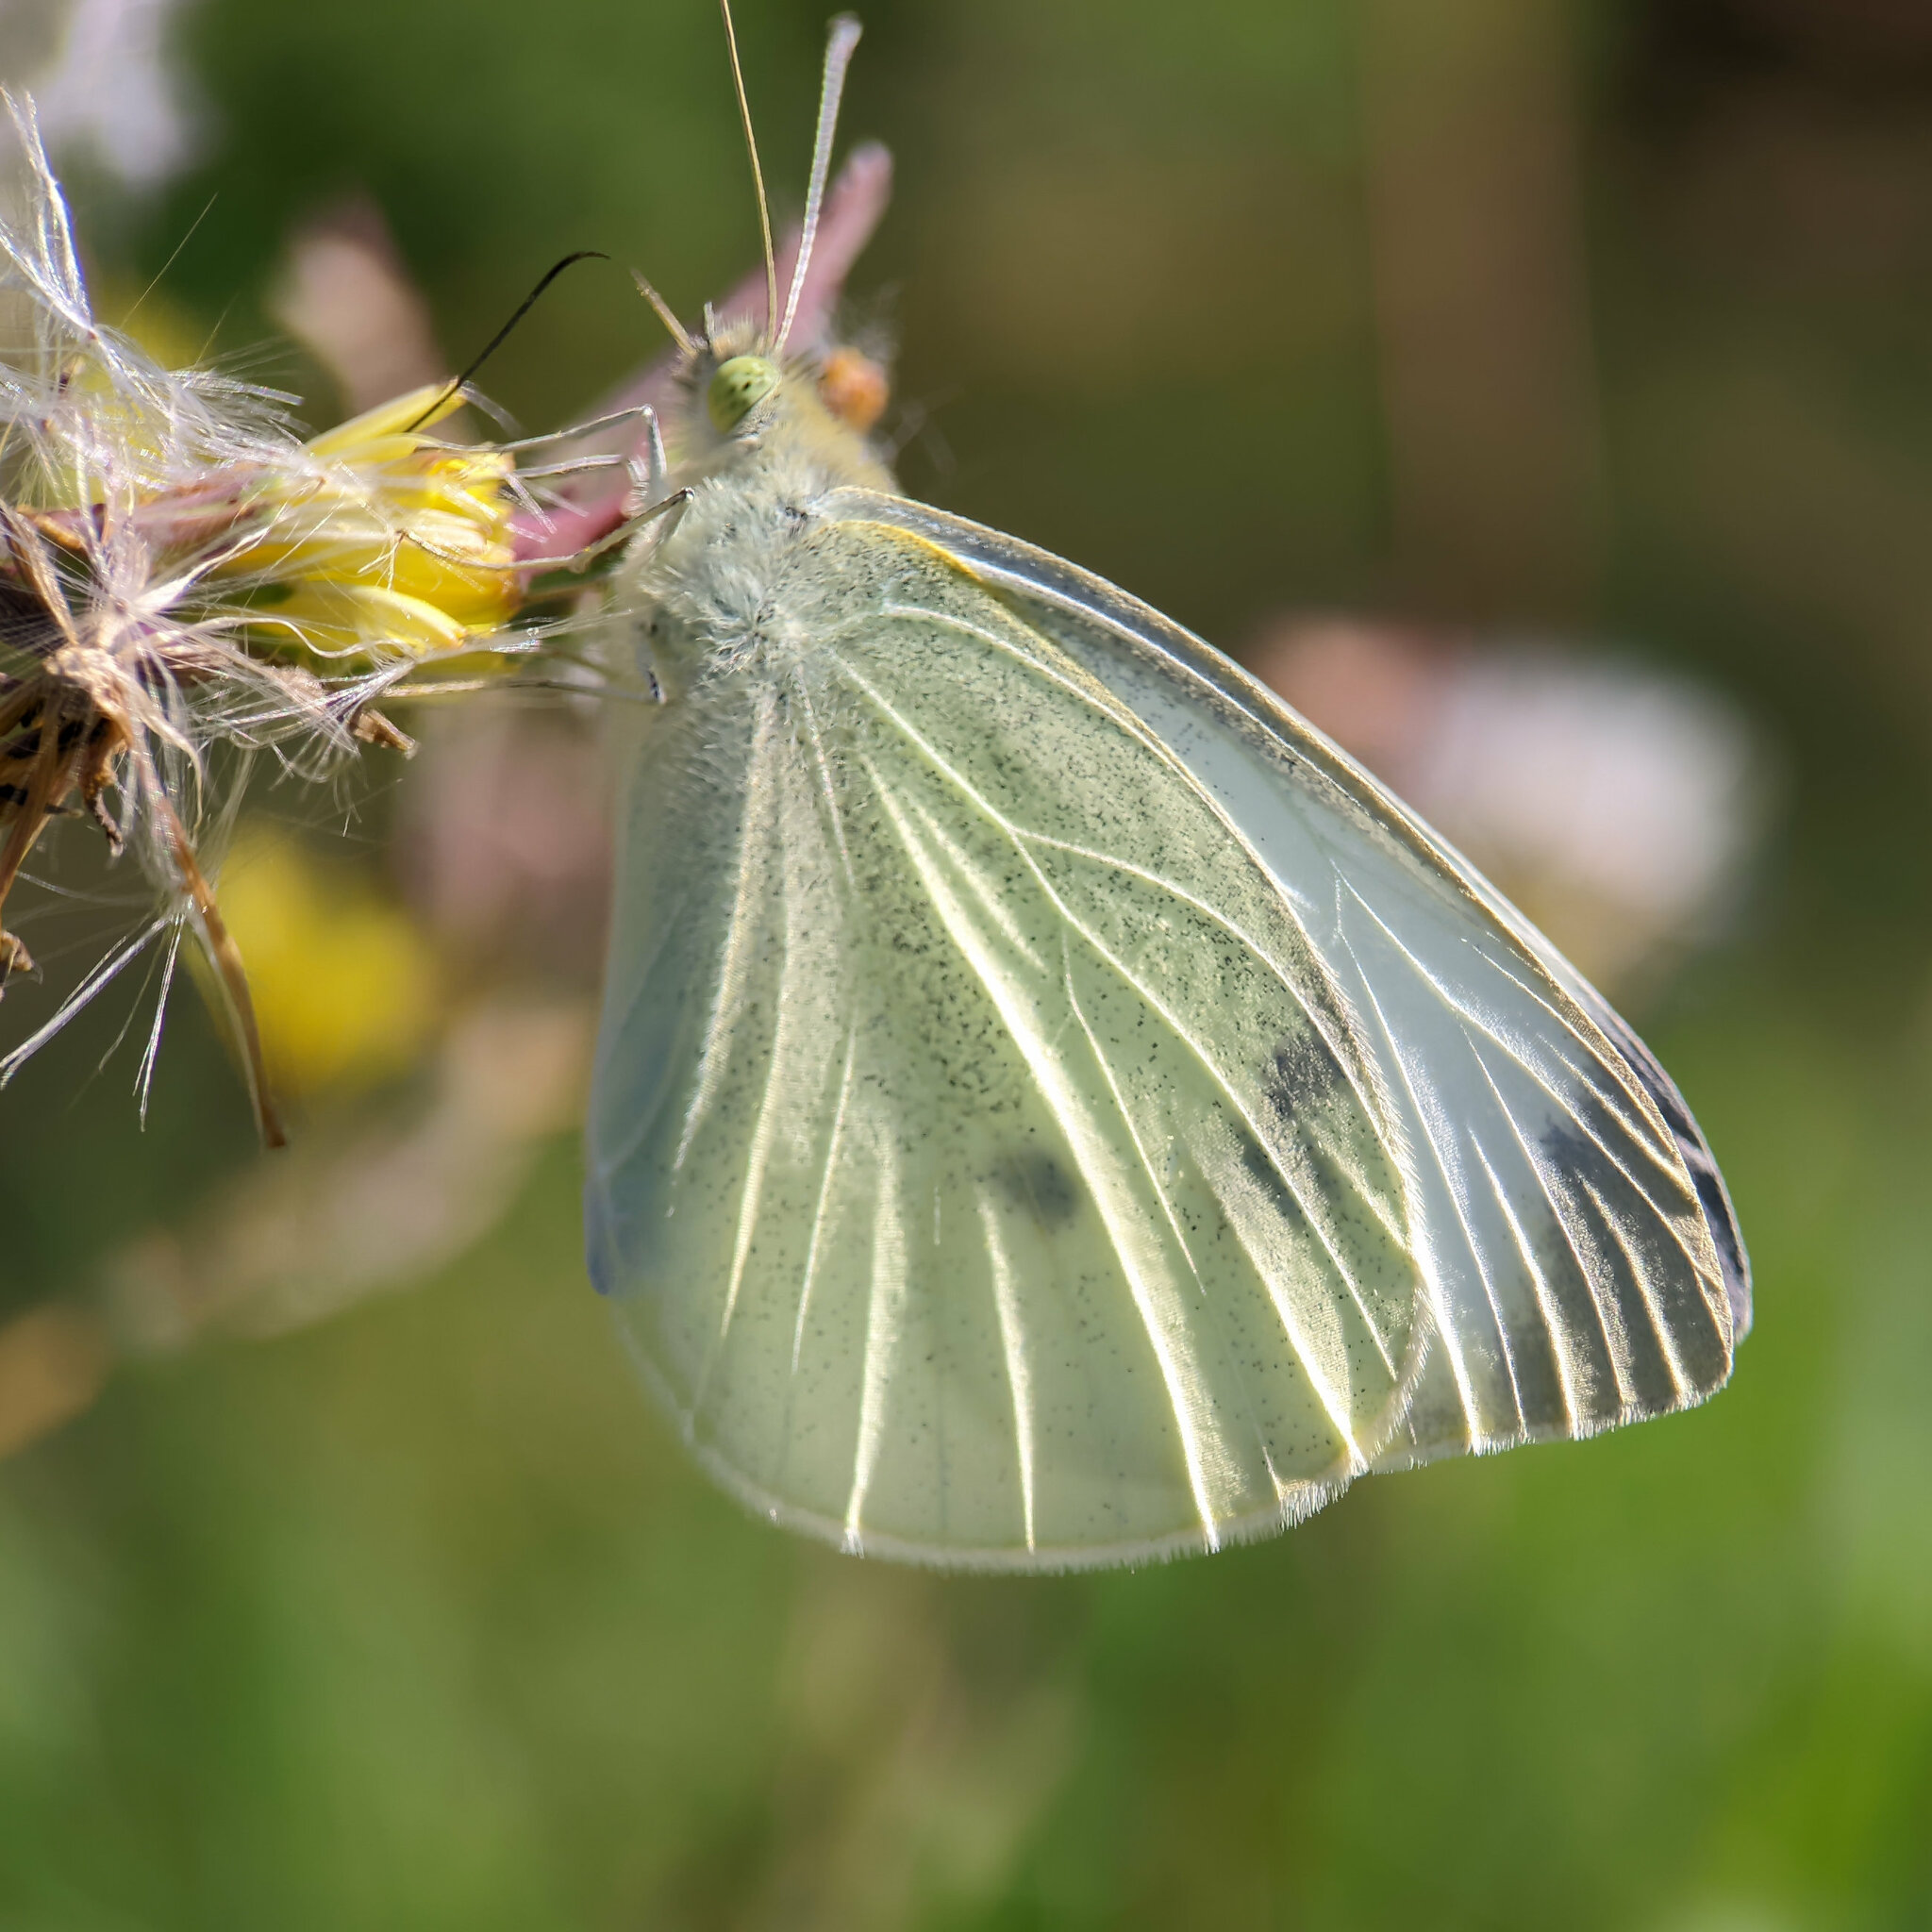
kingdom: Animalia
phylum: Arthropoda
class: Insecta
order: Lepidoptera
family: Pieridae
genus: Pieris
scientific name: Pieris rapae
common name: Small white
